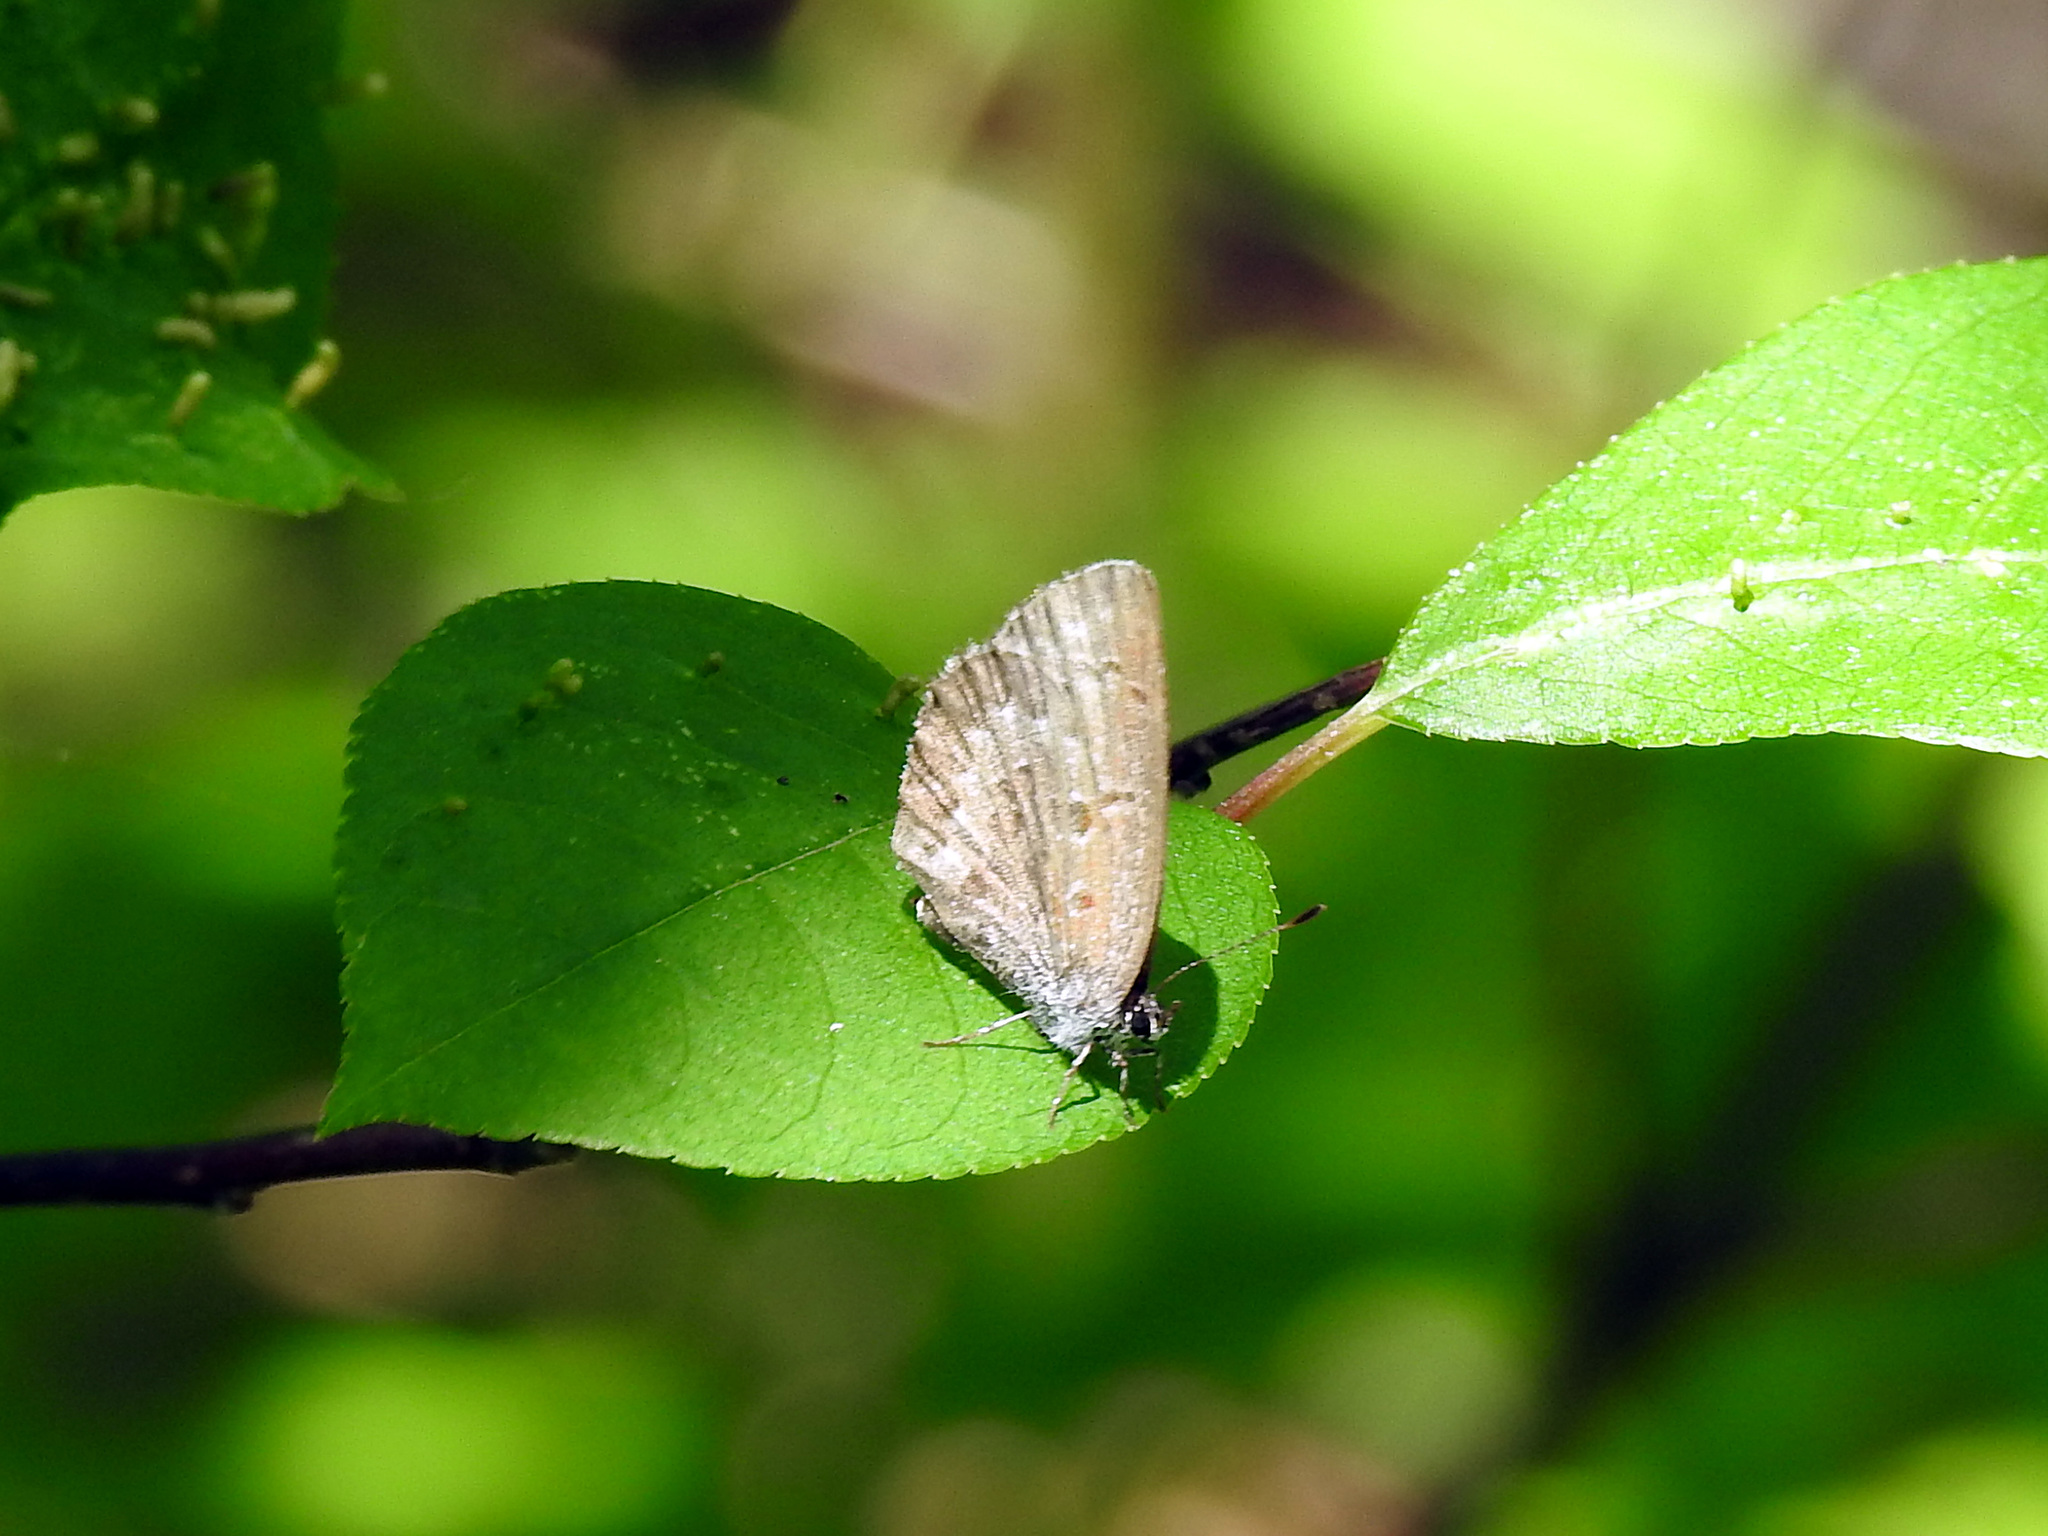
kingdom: Animalia
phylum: Arthropoda
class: Insecta
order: Lepidoptera
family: Lycaenidae
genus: Celastrina
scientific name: Celastrina lucia
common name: Lucia azure
